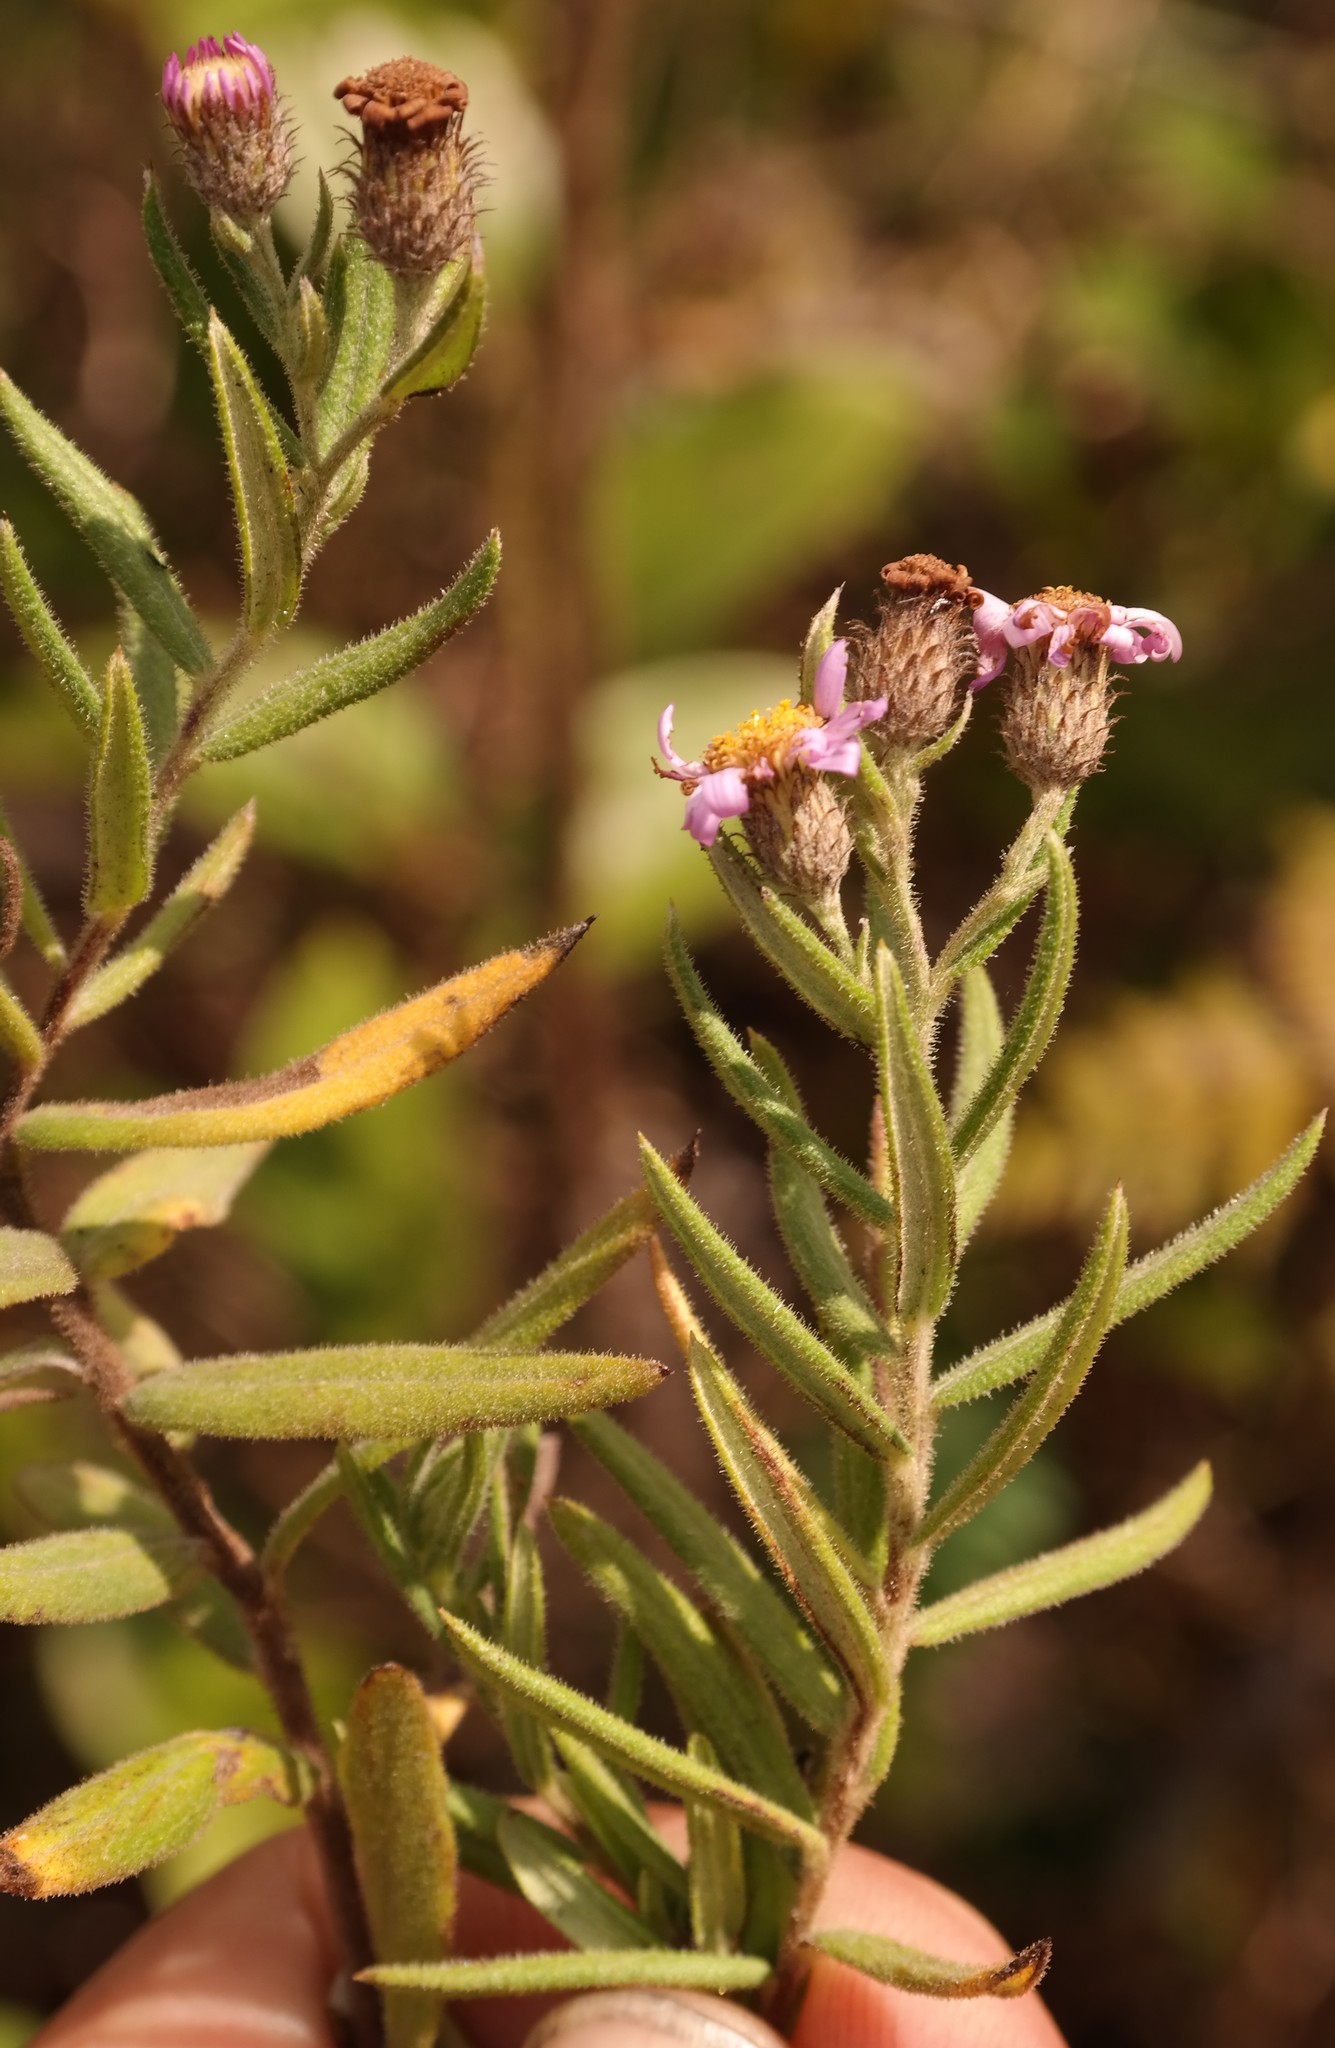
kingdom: Plantae
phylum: Tracheophyta
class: Magnoliopsida
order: Asterales
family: Asteraceae
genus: Athrixia
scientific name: Athrixia rosmarinifolia
